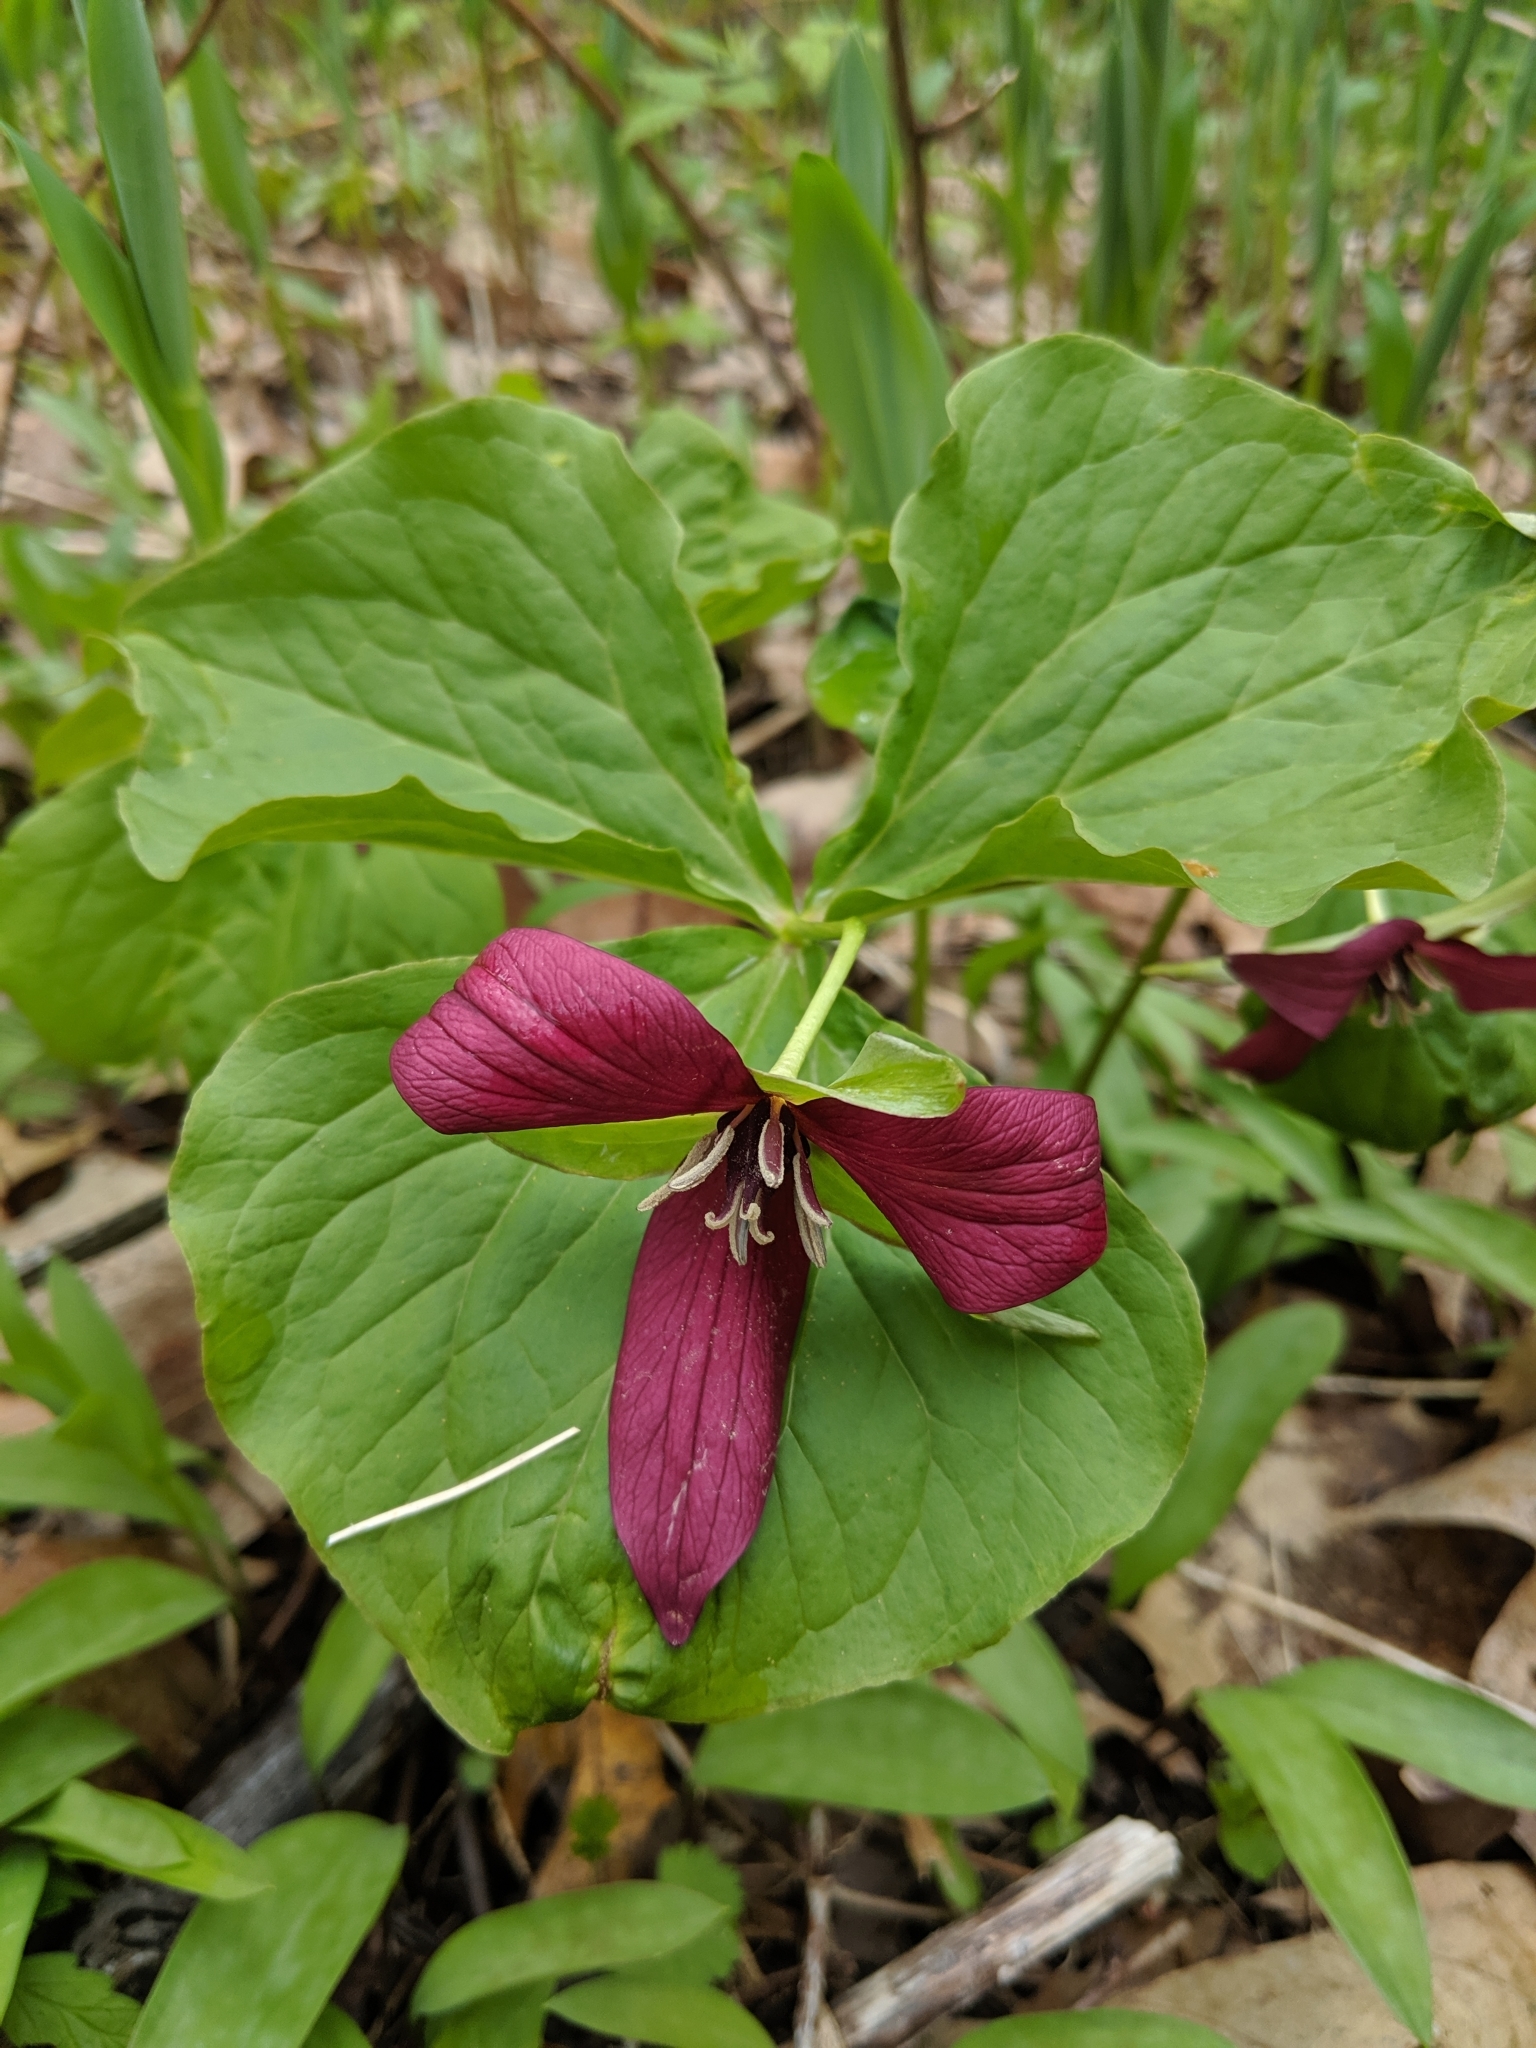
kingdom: Plantae
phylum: Tracheophyta
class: Liliopsida
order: Liliales
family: Melanthiaceae
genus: Trillium
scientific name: Trillium erectum
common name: Purple trillium
